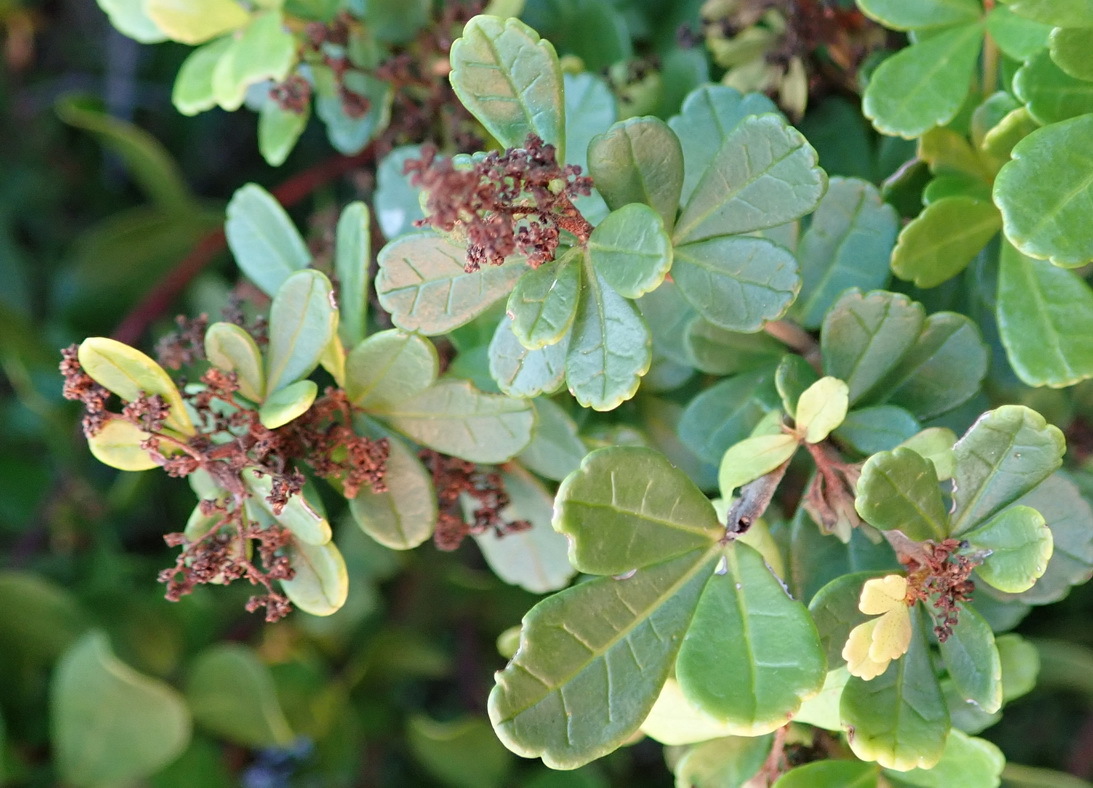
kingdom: Plantae
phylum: Tracheophyta
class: Magnoliopsida
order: Sapindales
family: Anacardiaceae
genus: Searsia
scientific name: Searsia crenata
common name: Crowberry
